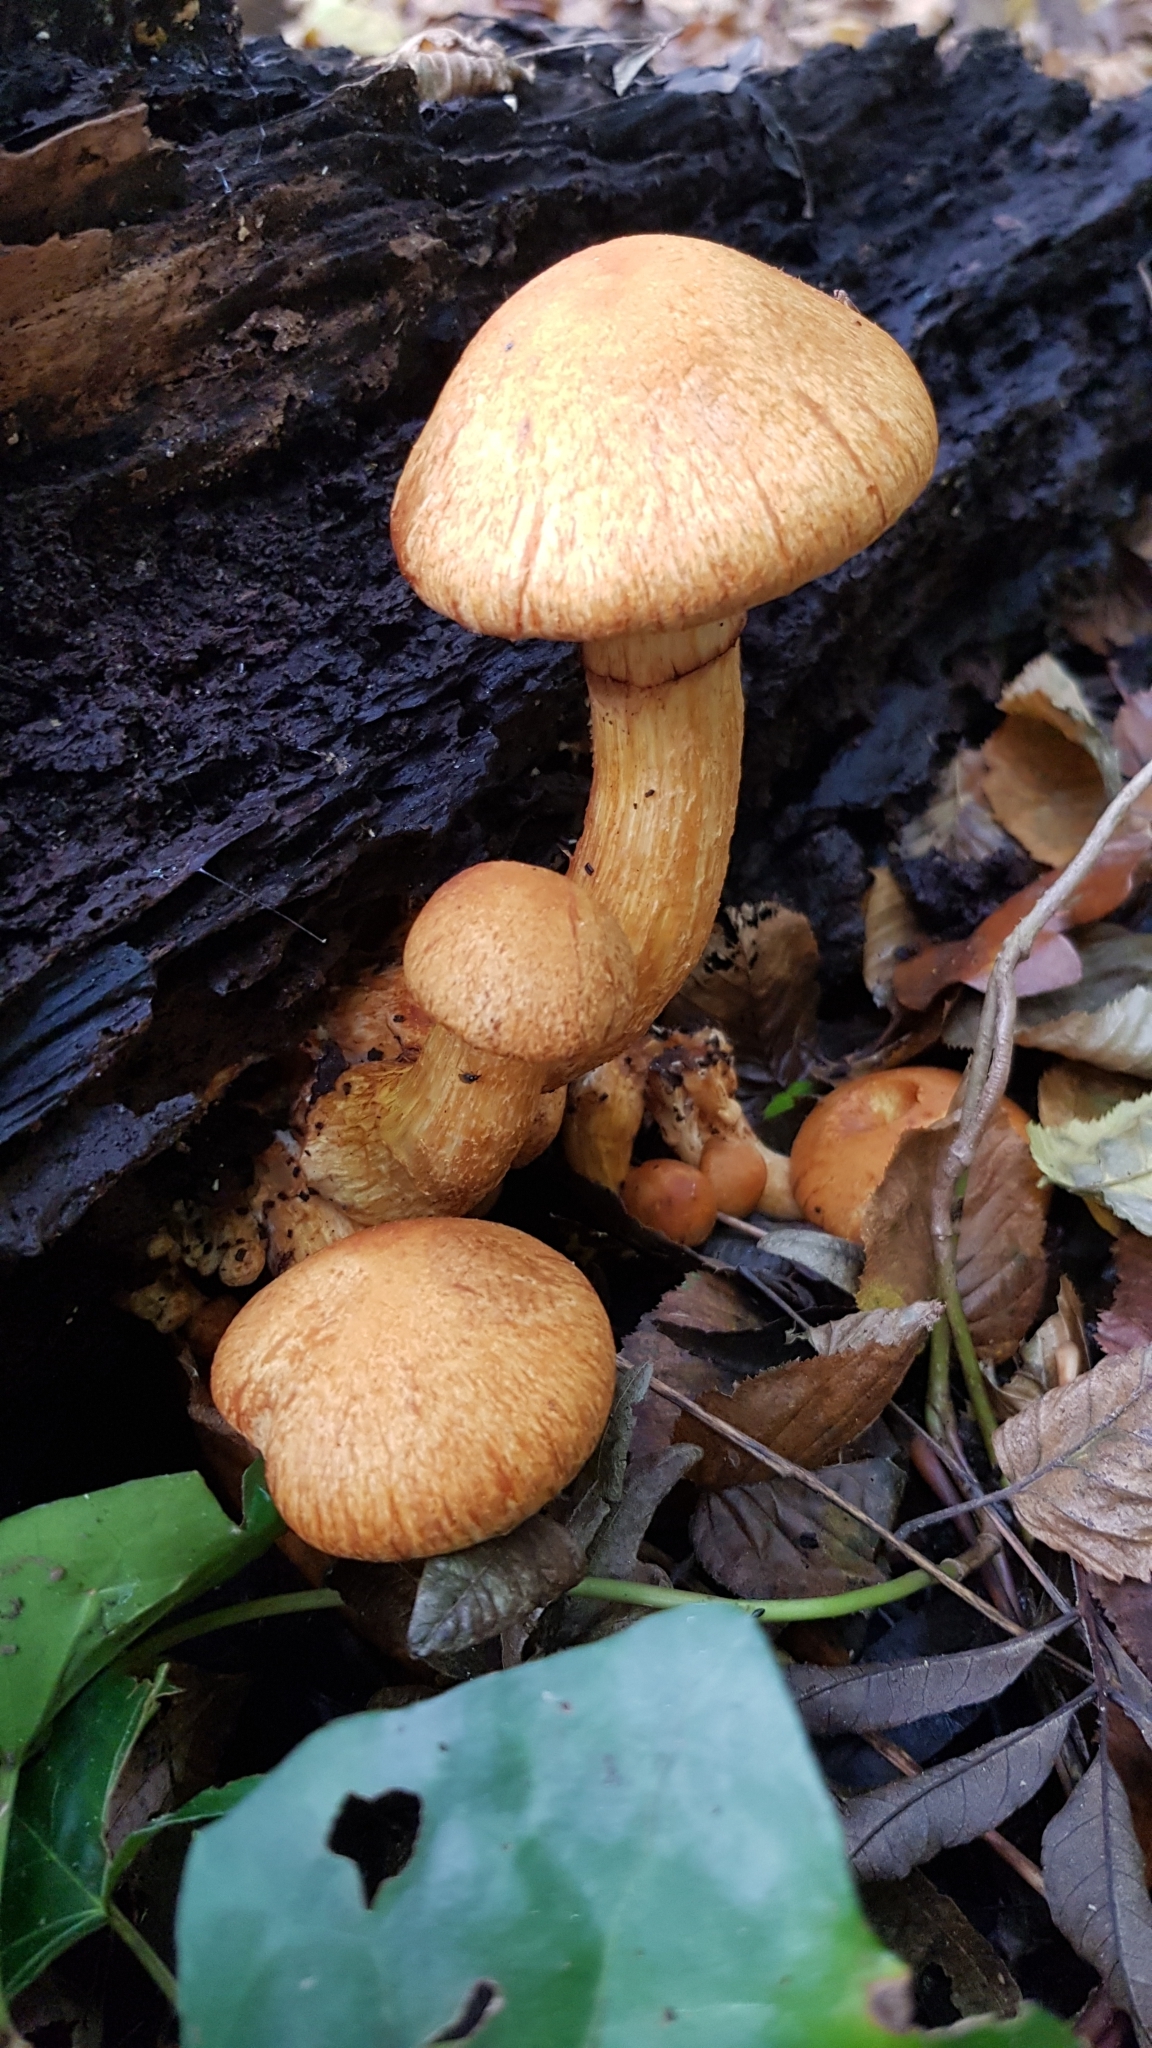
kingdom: Fungi
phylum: Basidiomycota
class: Agaricomycetes
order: Agaricales
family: Hymenogastraceae
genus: Gymnopilus
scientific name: Gymnopilus junonius
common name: Spectacular rustgill
